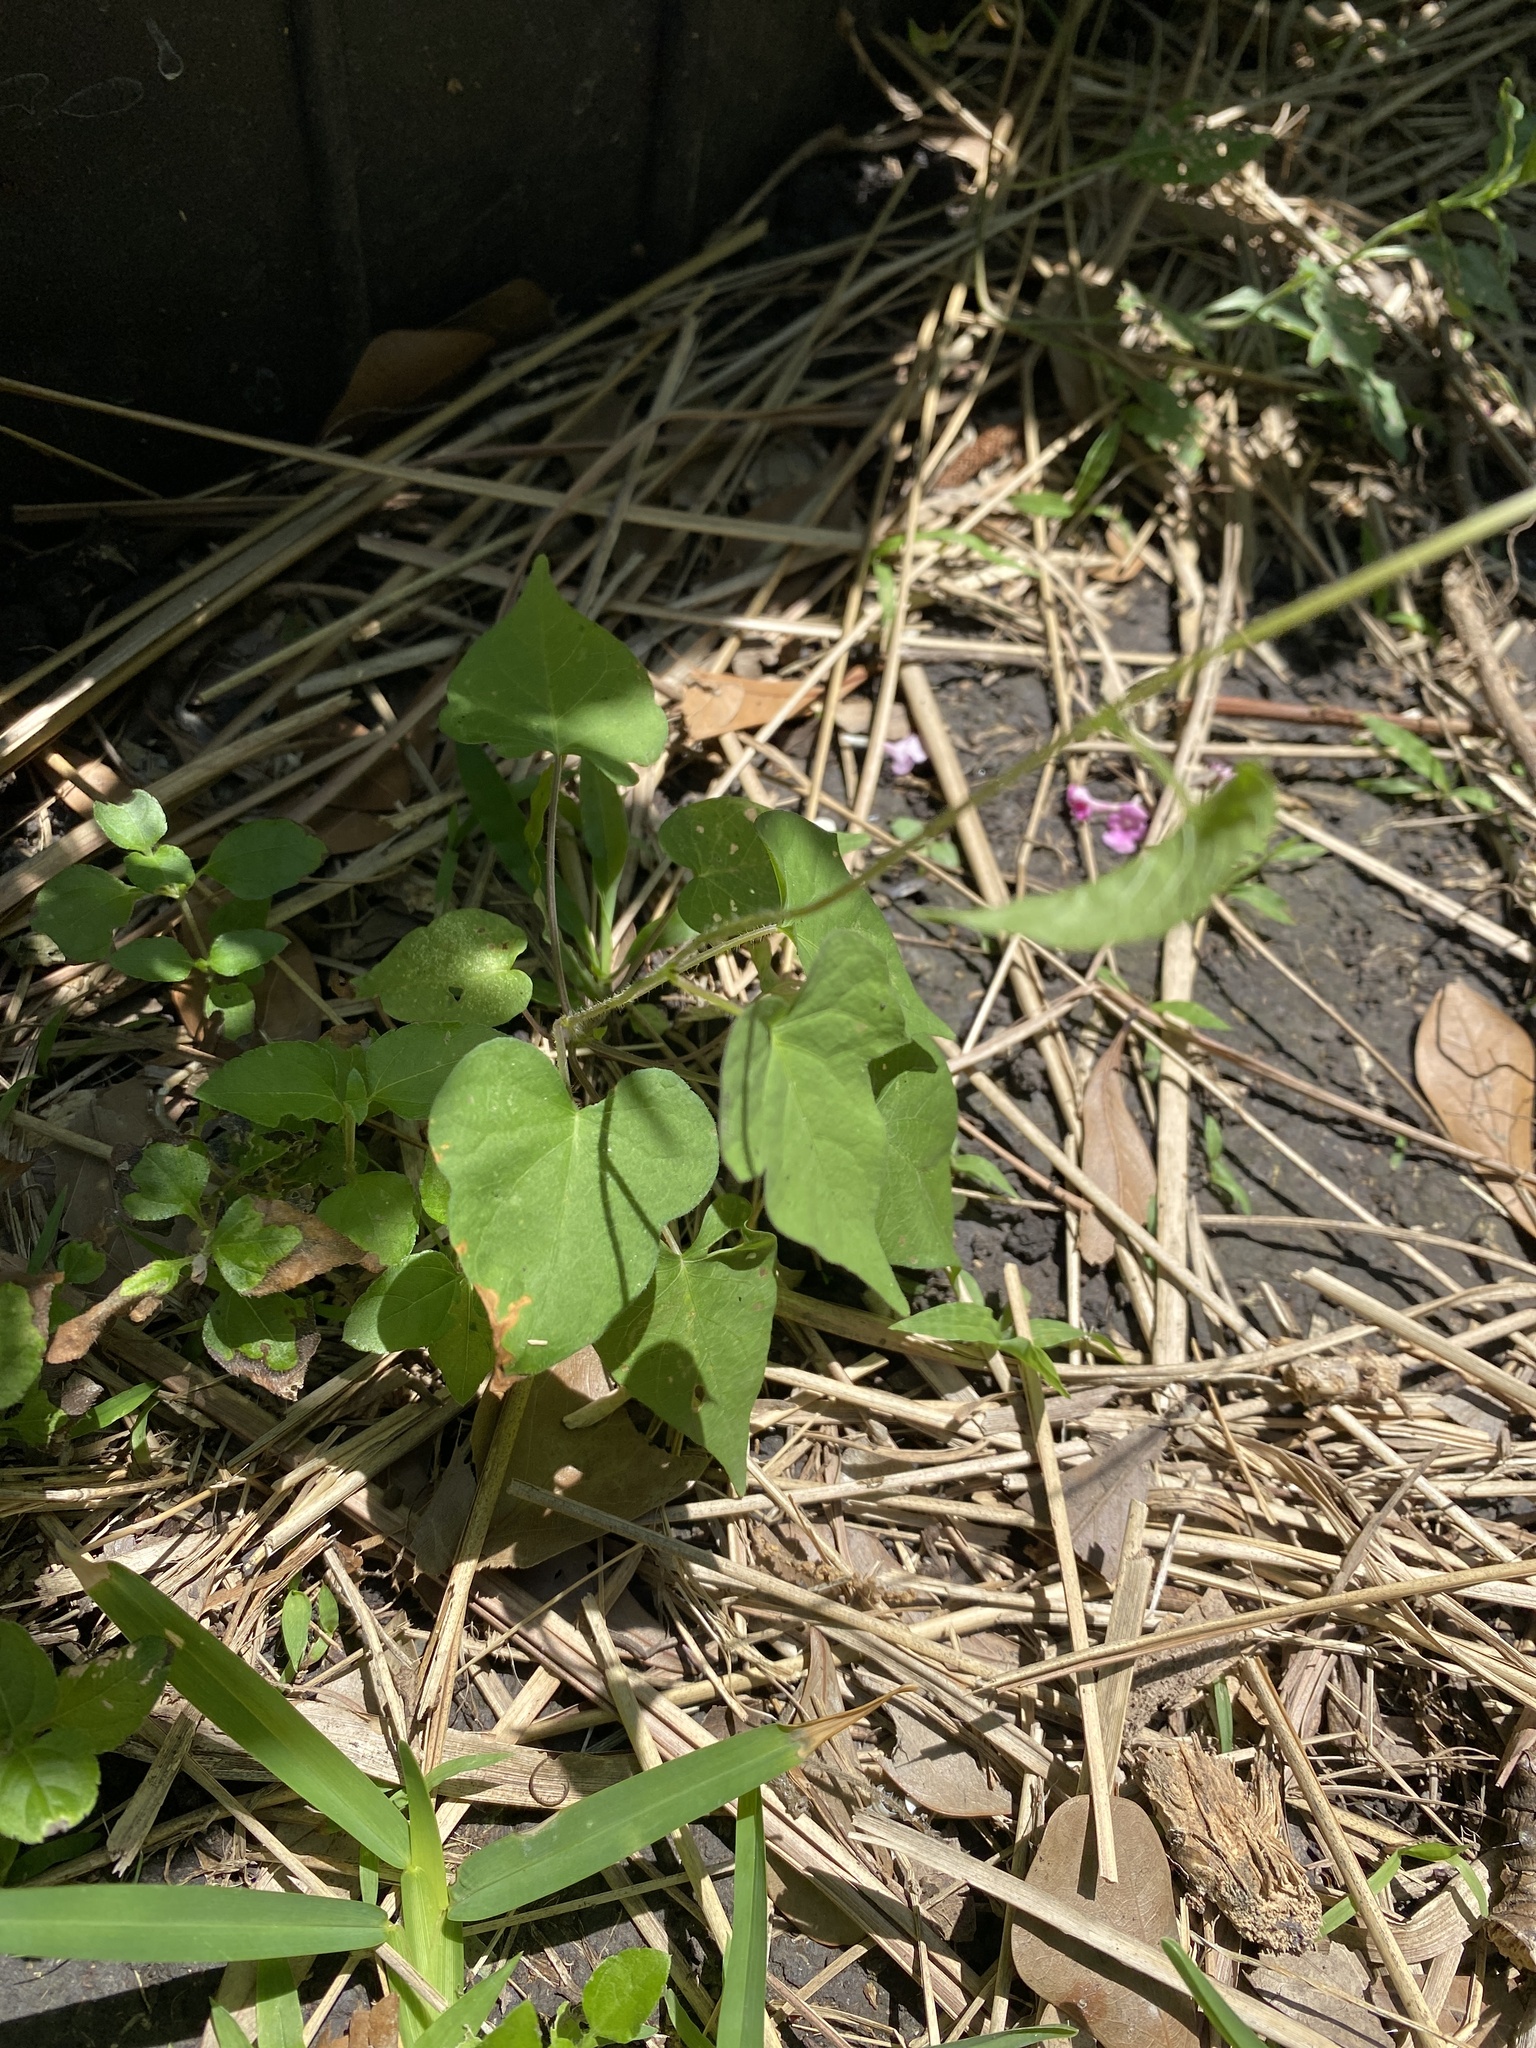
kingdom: Plantae
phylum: Tracheophyta
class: Magnoliopsida
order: Solanales
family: Convolvulaceae
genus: Ipomoea
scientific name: Ipomoea cordatotriloba
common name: Cotton morning glory
